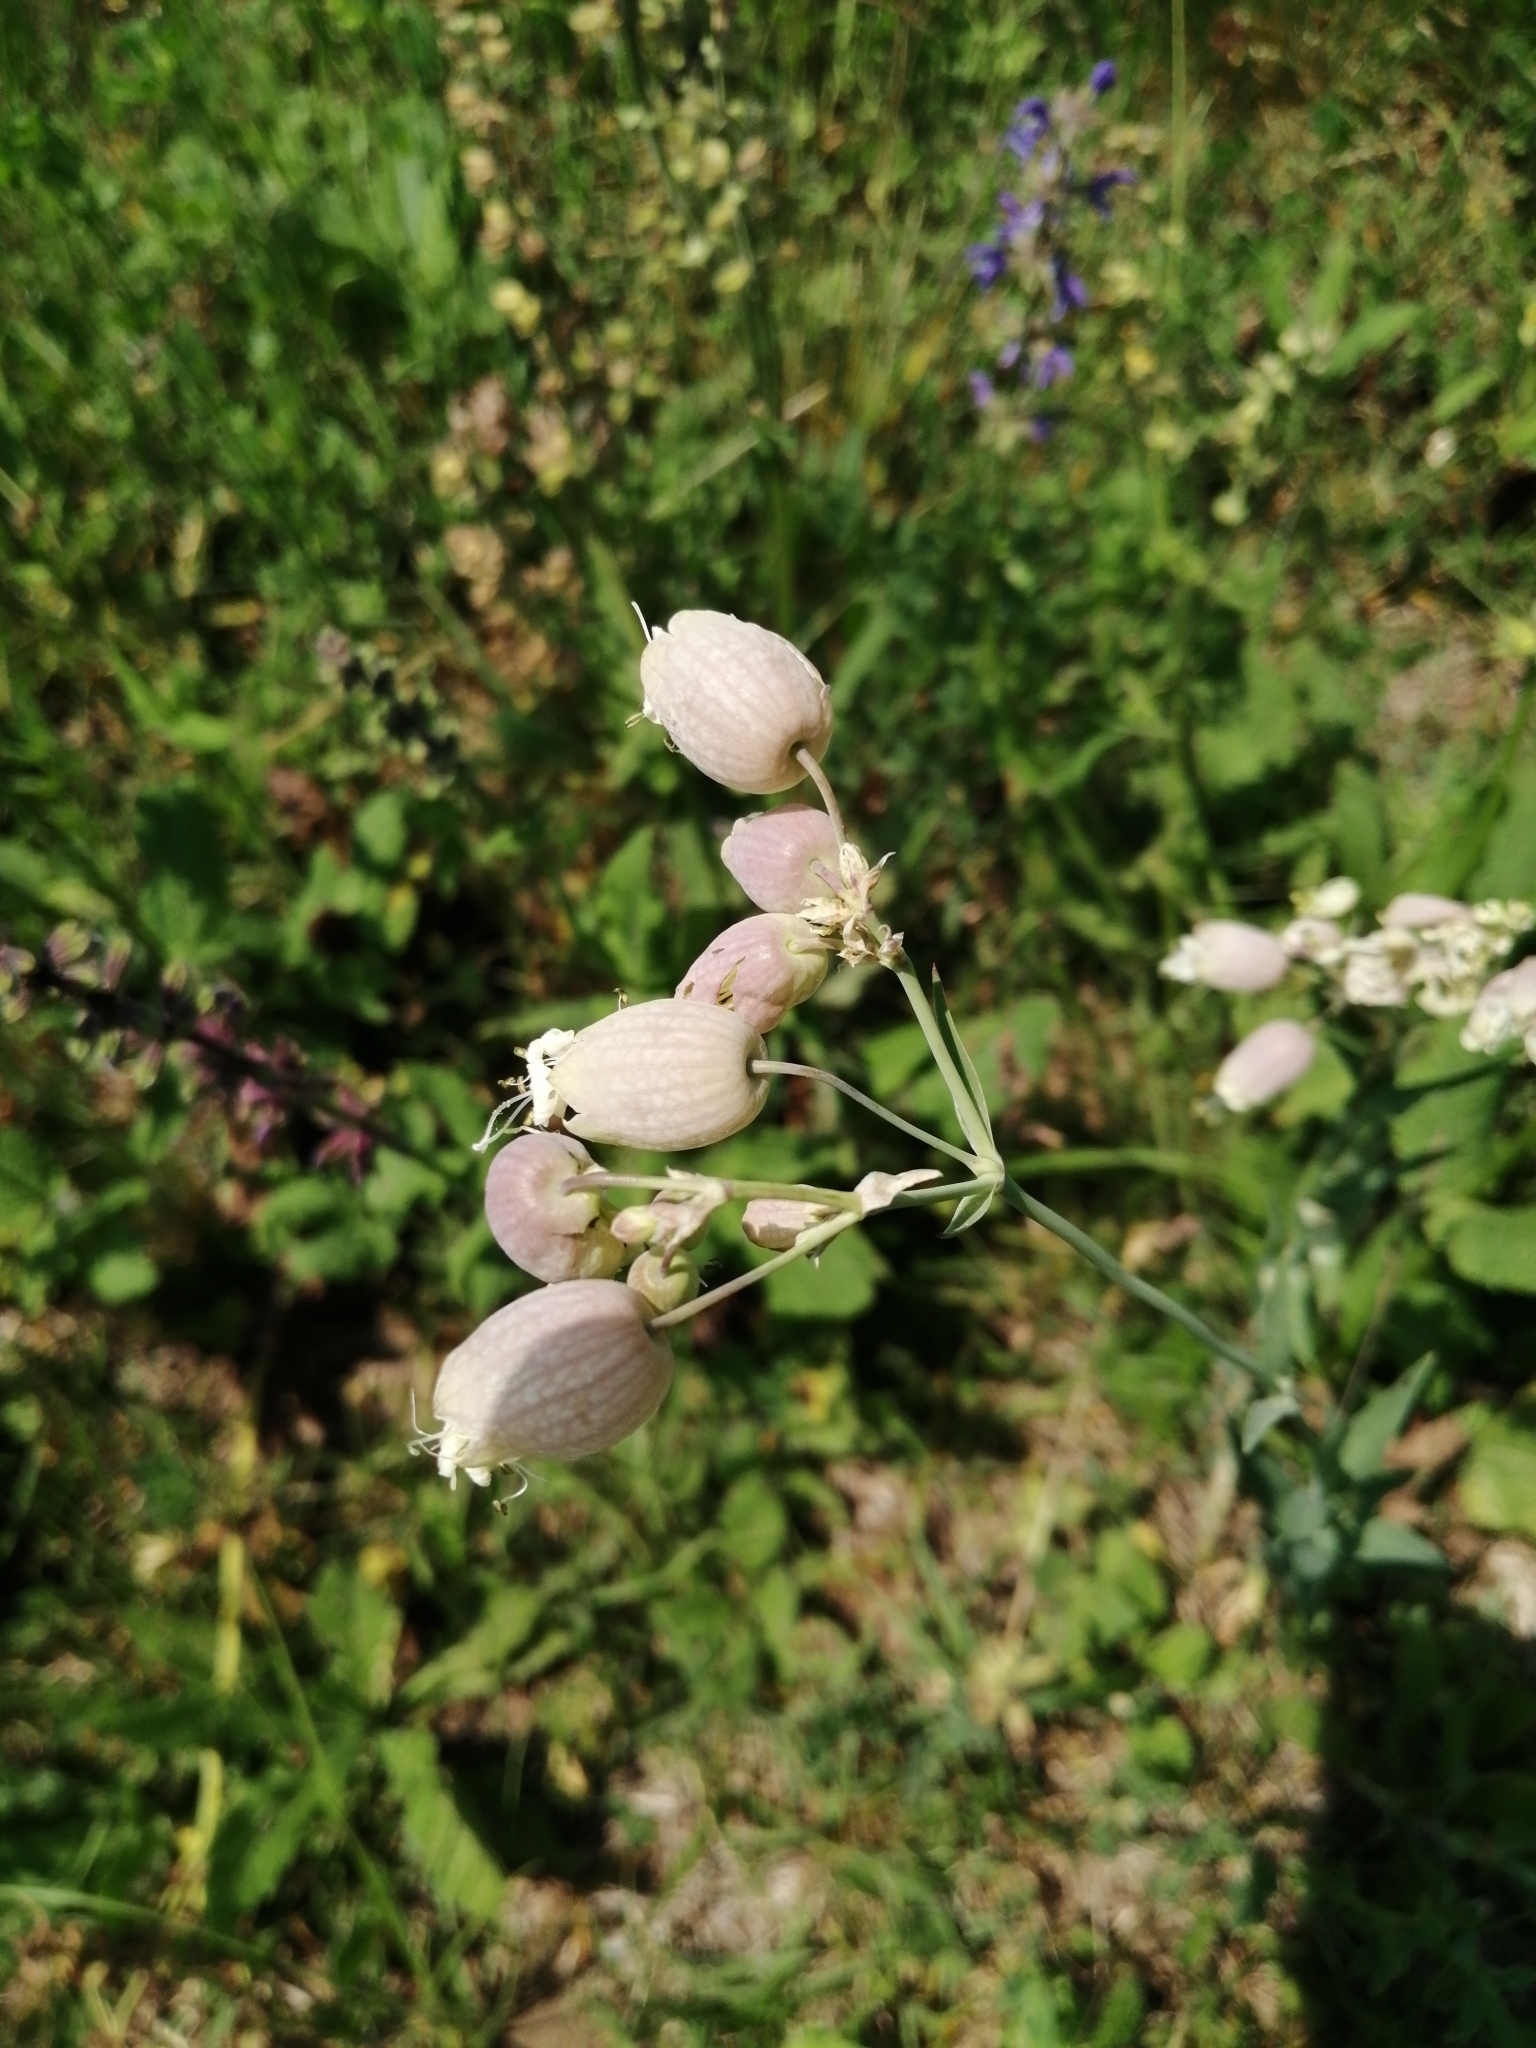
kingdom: Plantae
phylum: Tracheophyta
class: Magnoliopsida
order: Caryophyllales
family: Caryophyllaceae
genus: Silene
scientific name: Silene vulgaris
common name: Bladder campion
